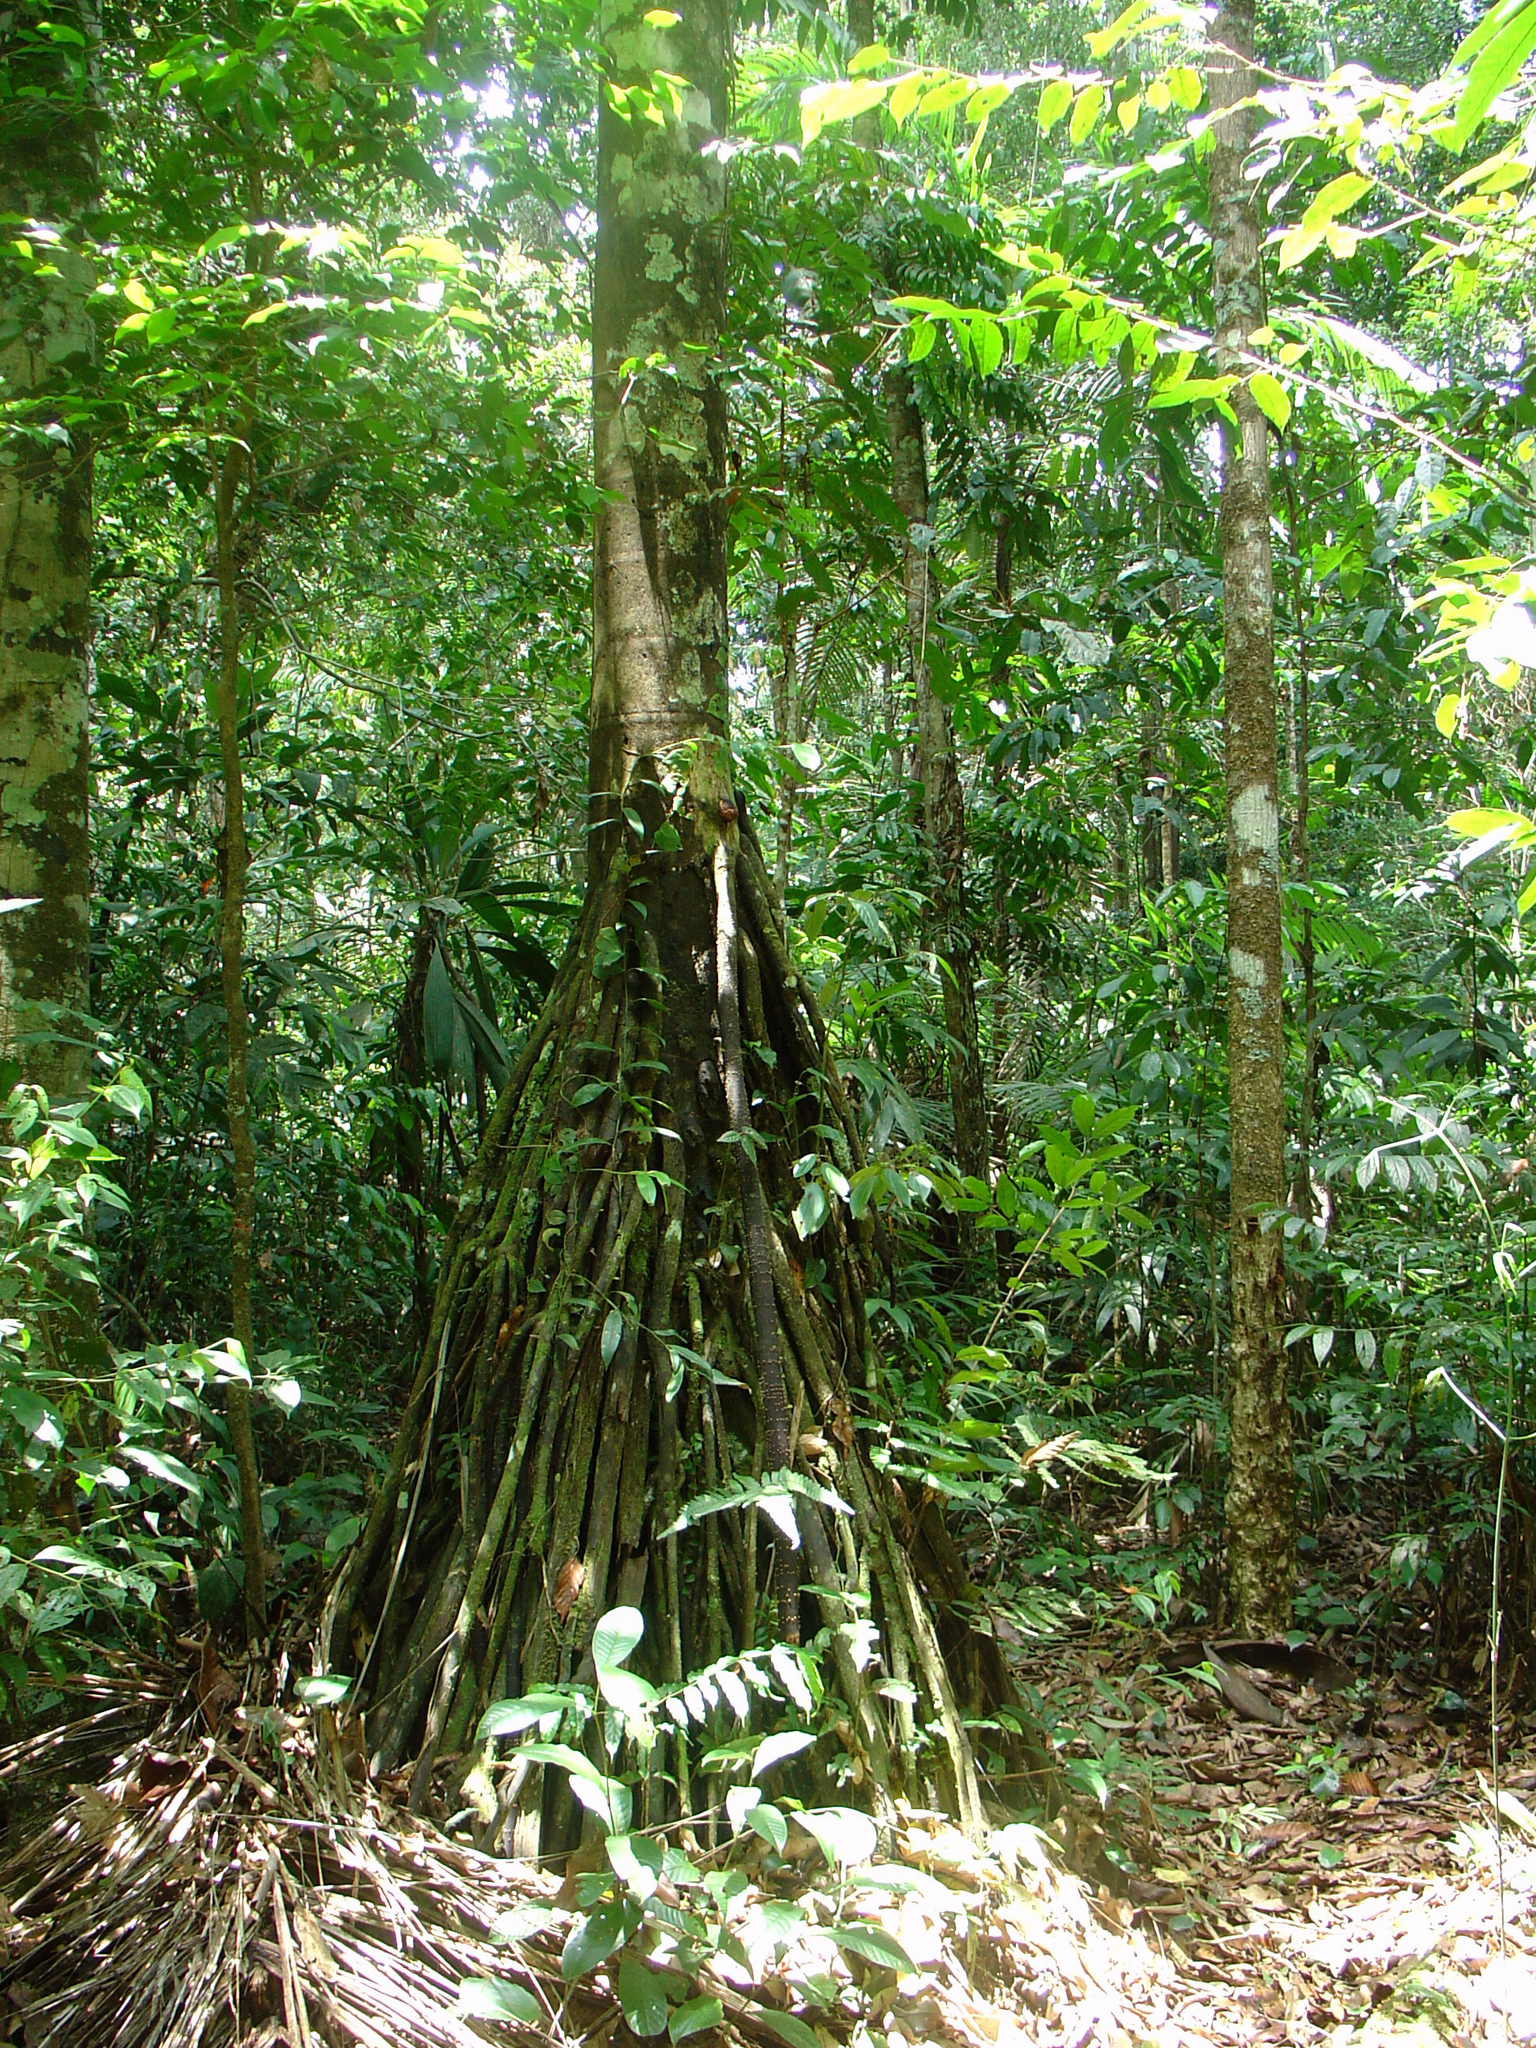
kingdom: Plantae
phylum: Tracheophyta
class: Liliopsida
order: Arecales
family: Arecaceae
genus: Socratea
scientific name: Socratea exorrhiza
